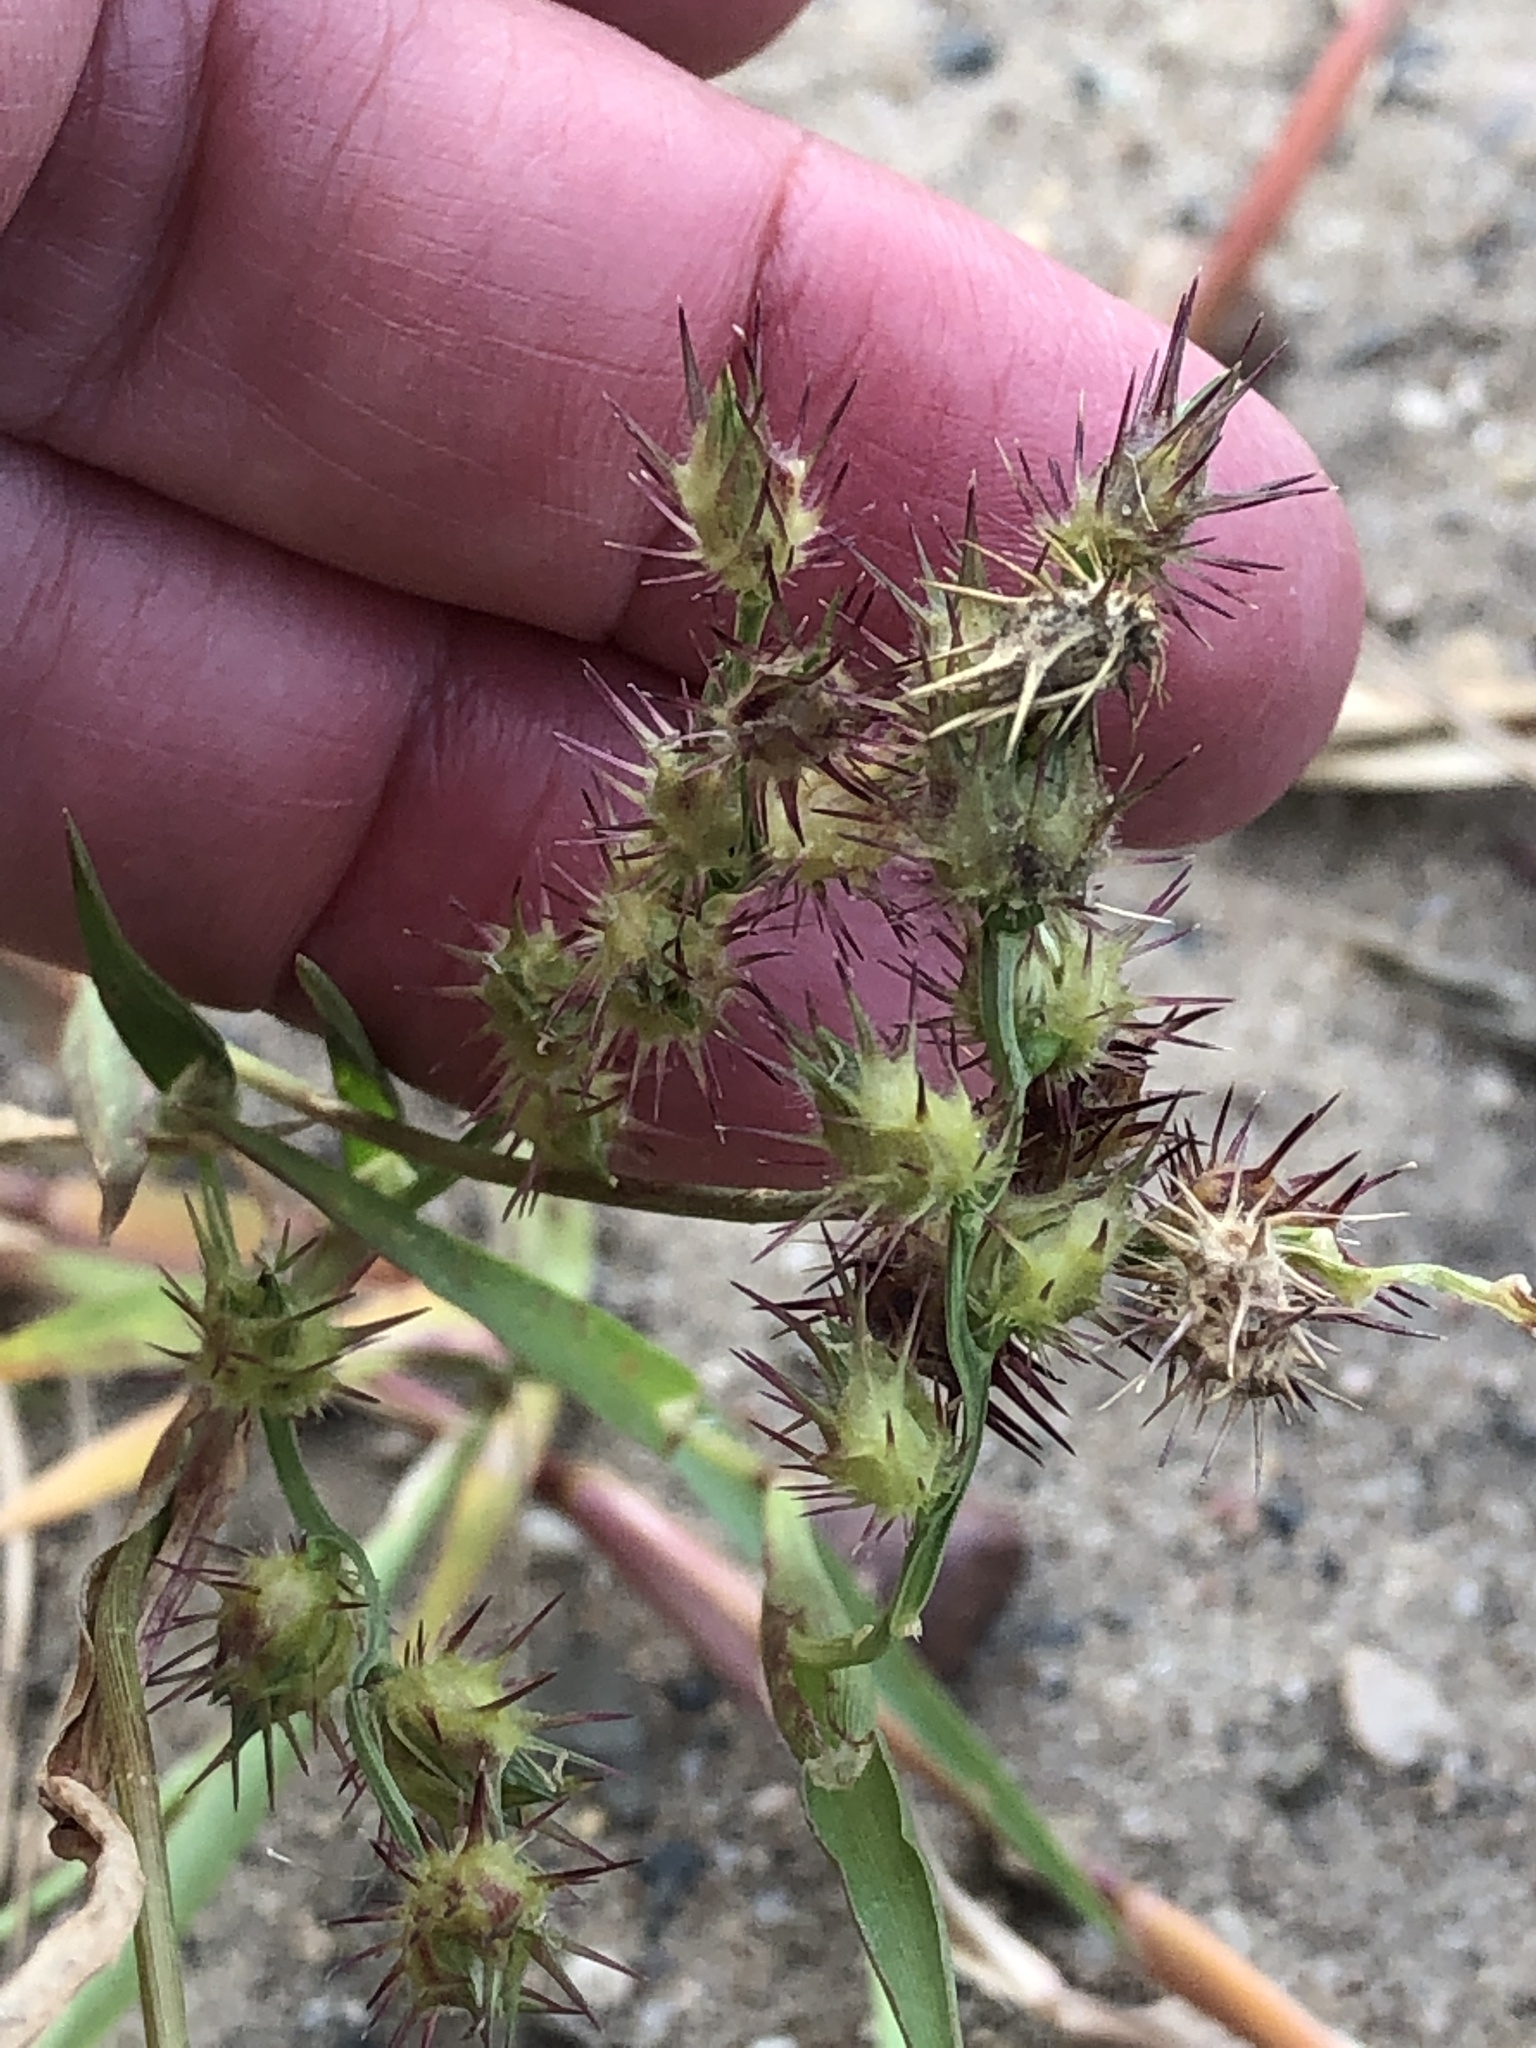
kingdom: Plantae
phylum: Tracheophyta
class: Liliopsida
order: Poales
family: Poaceae
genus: Cenchrus
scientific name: Cenchrus longispinus
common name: Mat sandbur
